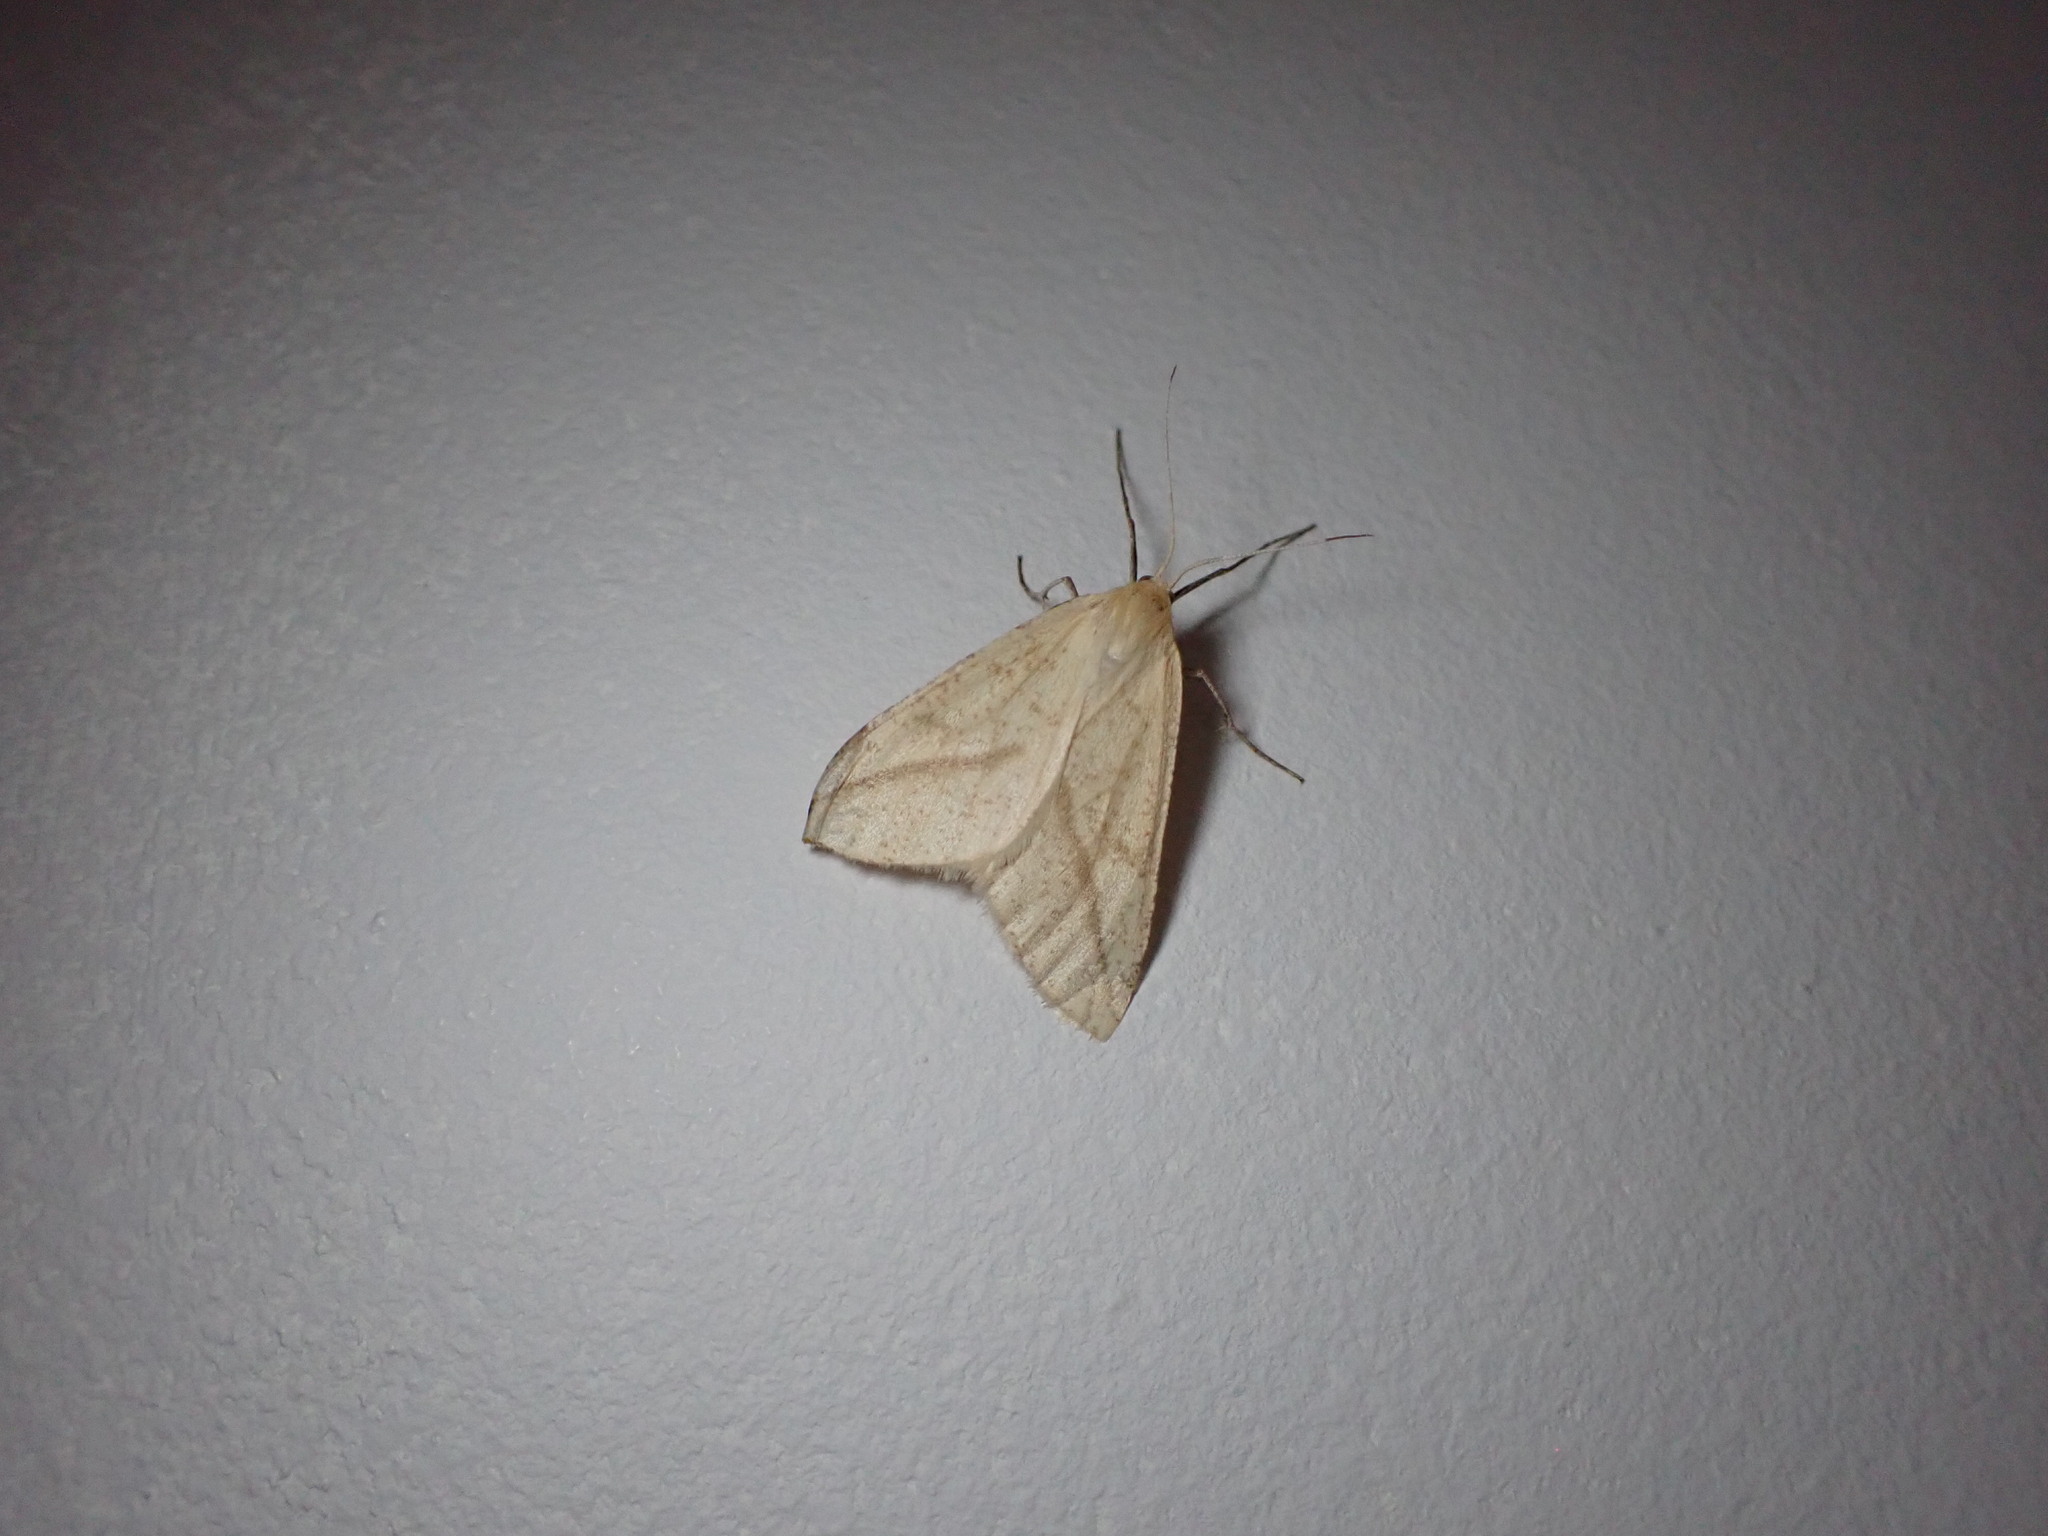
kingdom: Animalia
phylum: Arthropoda
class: Insecta
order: Lepidoptera
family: Geometridae
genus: Aspitates
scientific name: Aspitates gilvaria
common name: Straw belle
